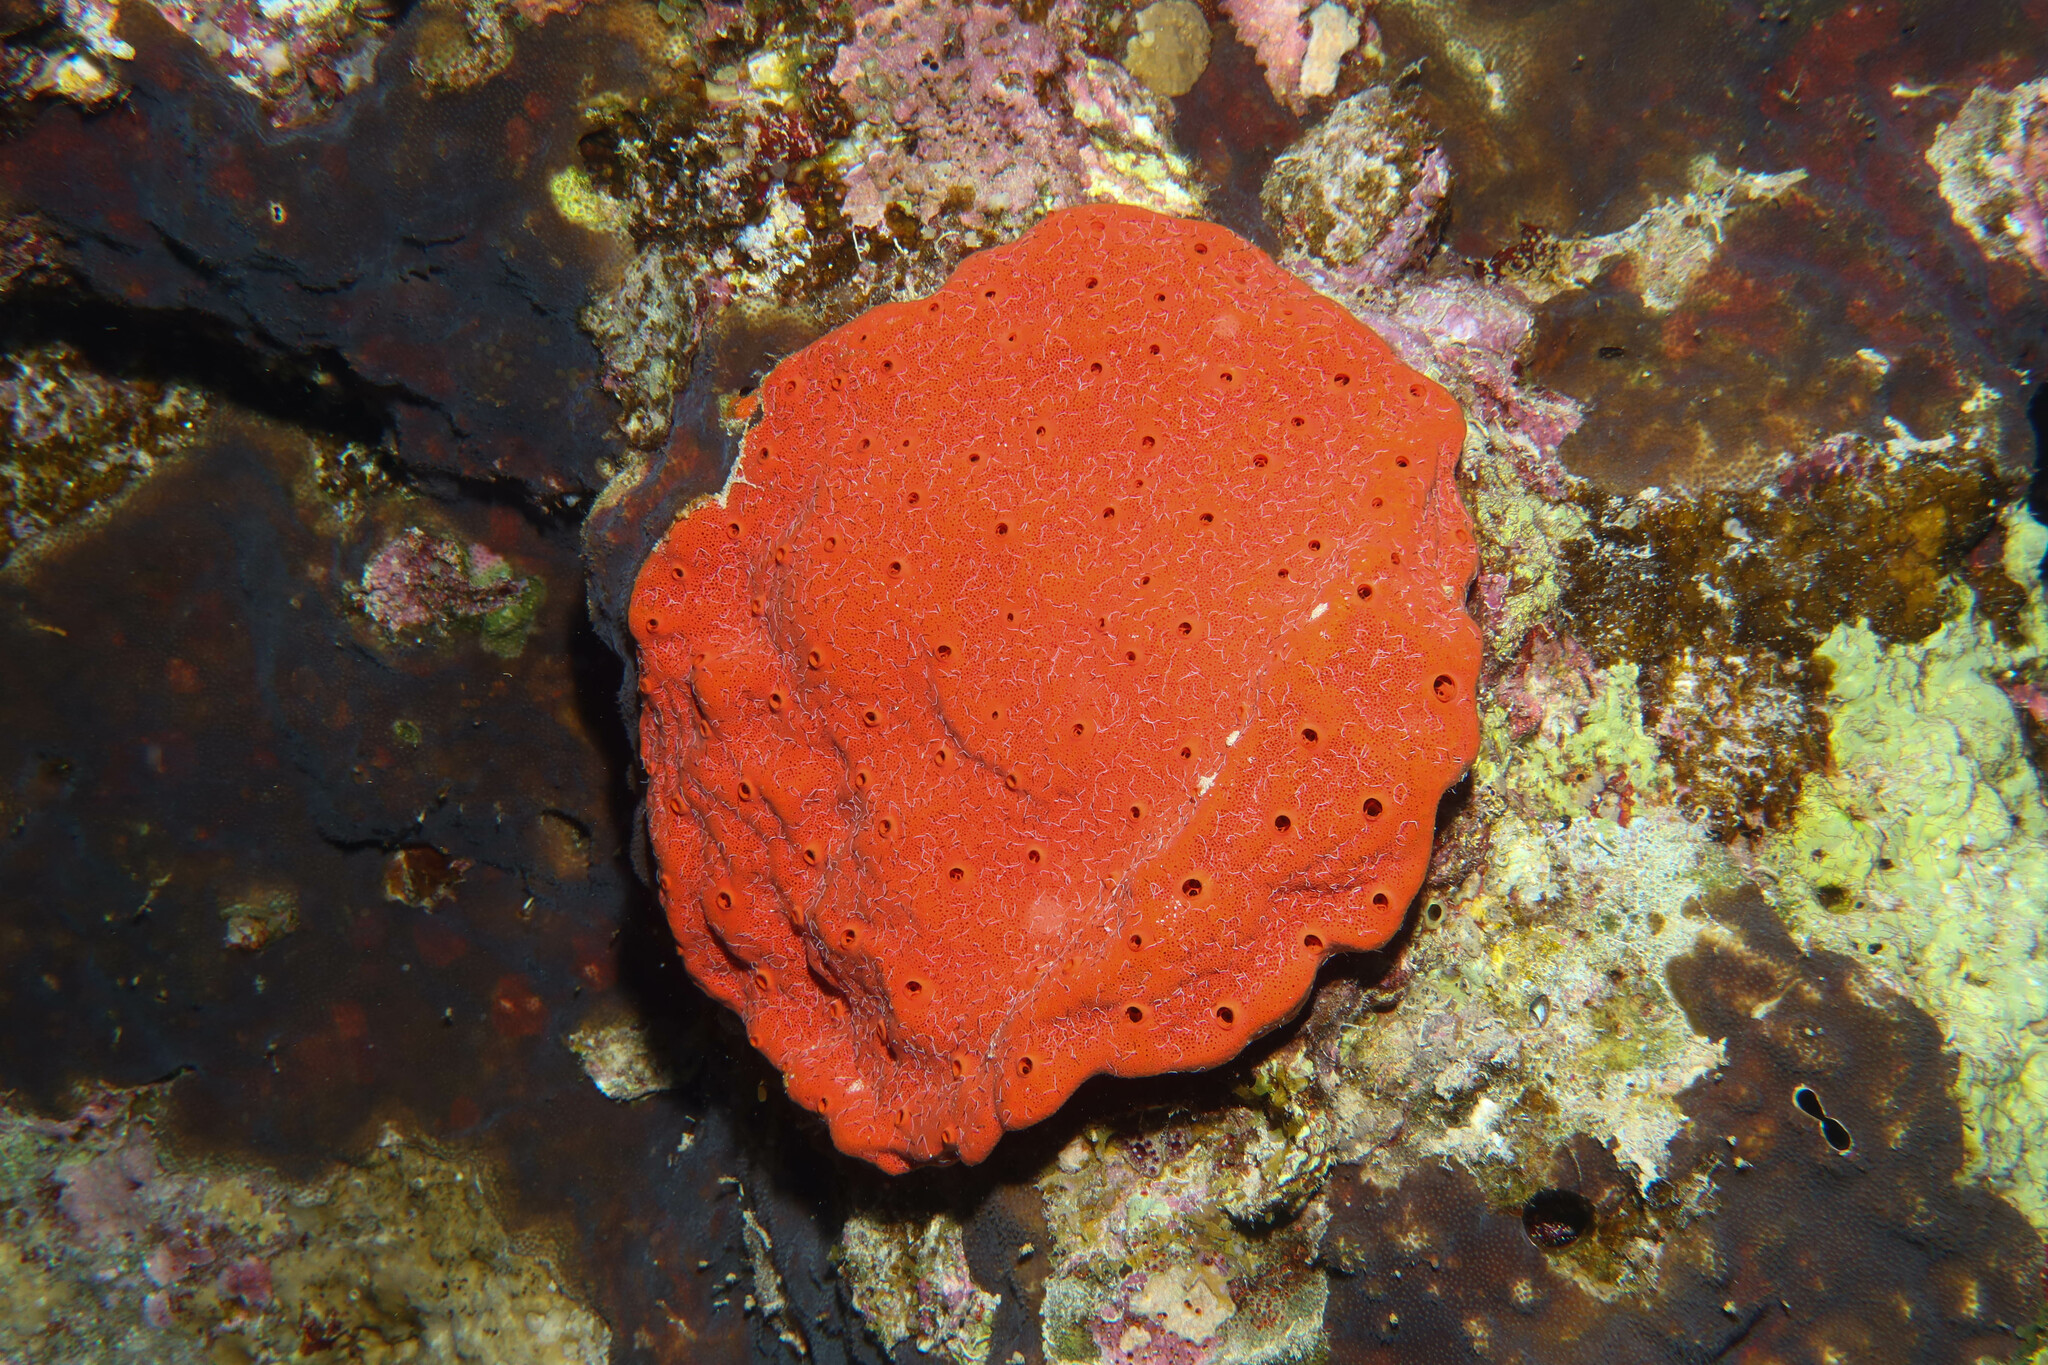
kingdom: Animalia
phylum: Porifera
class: Demospongiae
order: Clionaida
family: Clionaidae
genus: Pione
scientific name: Pione mussae
